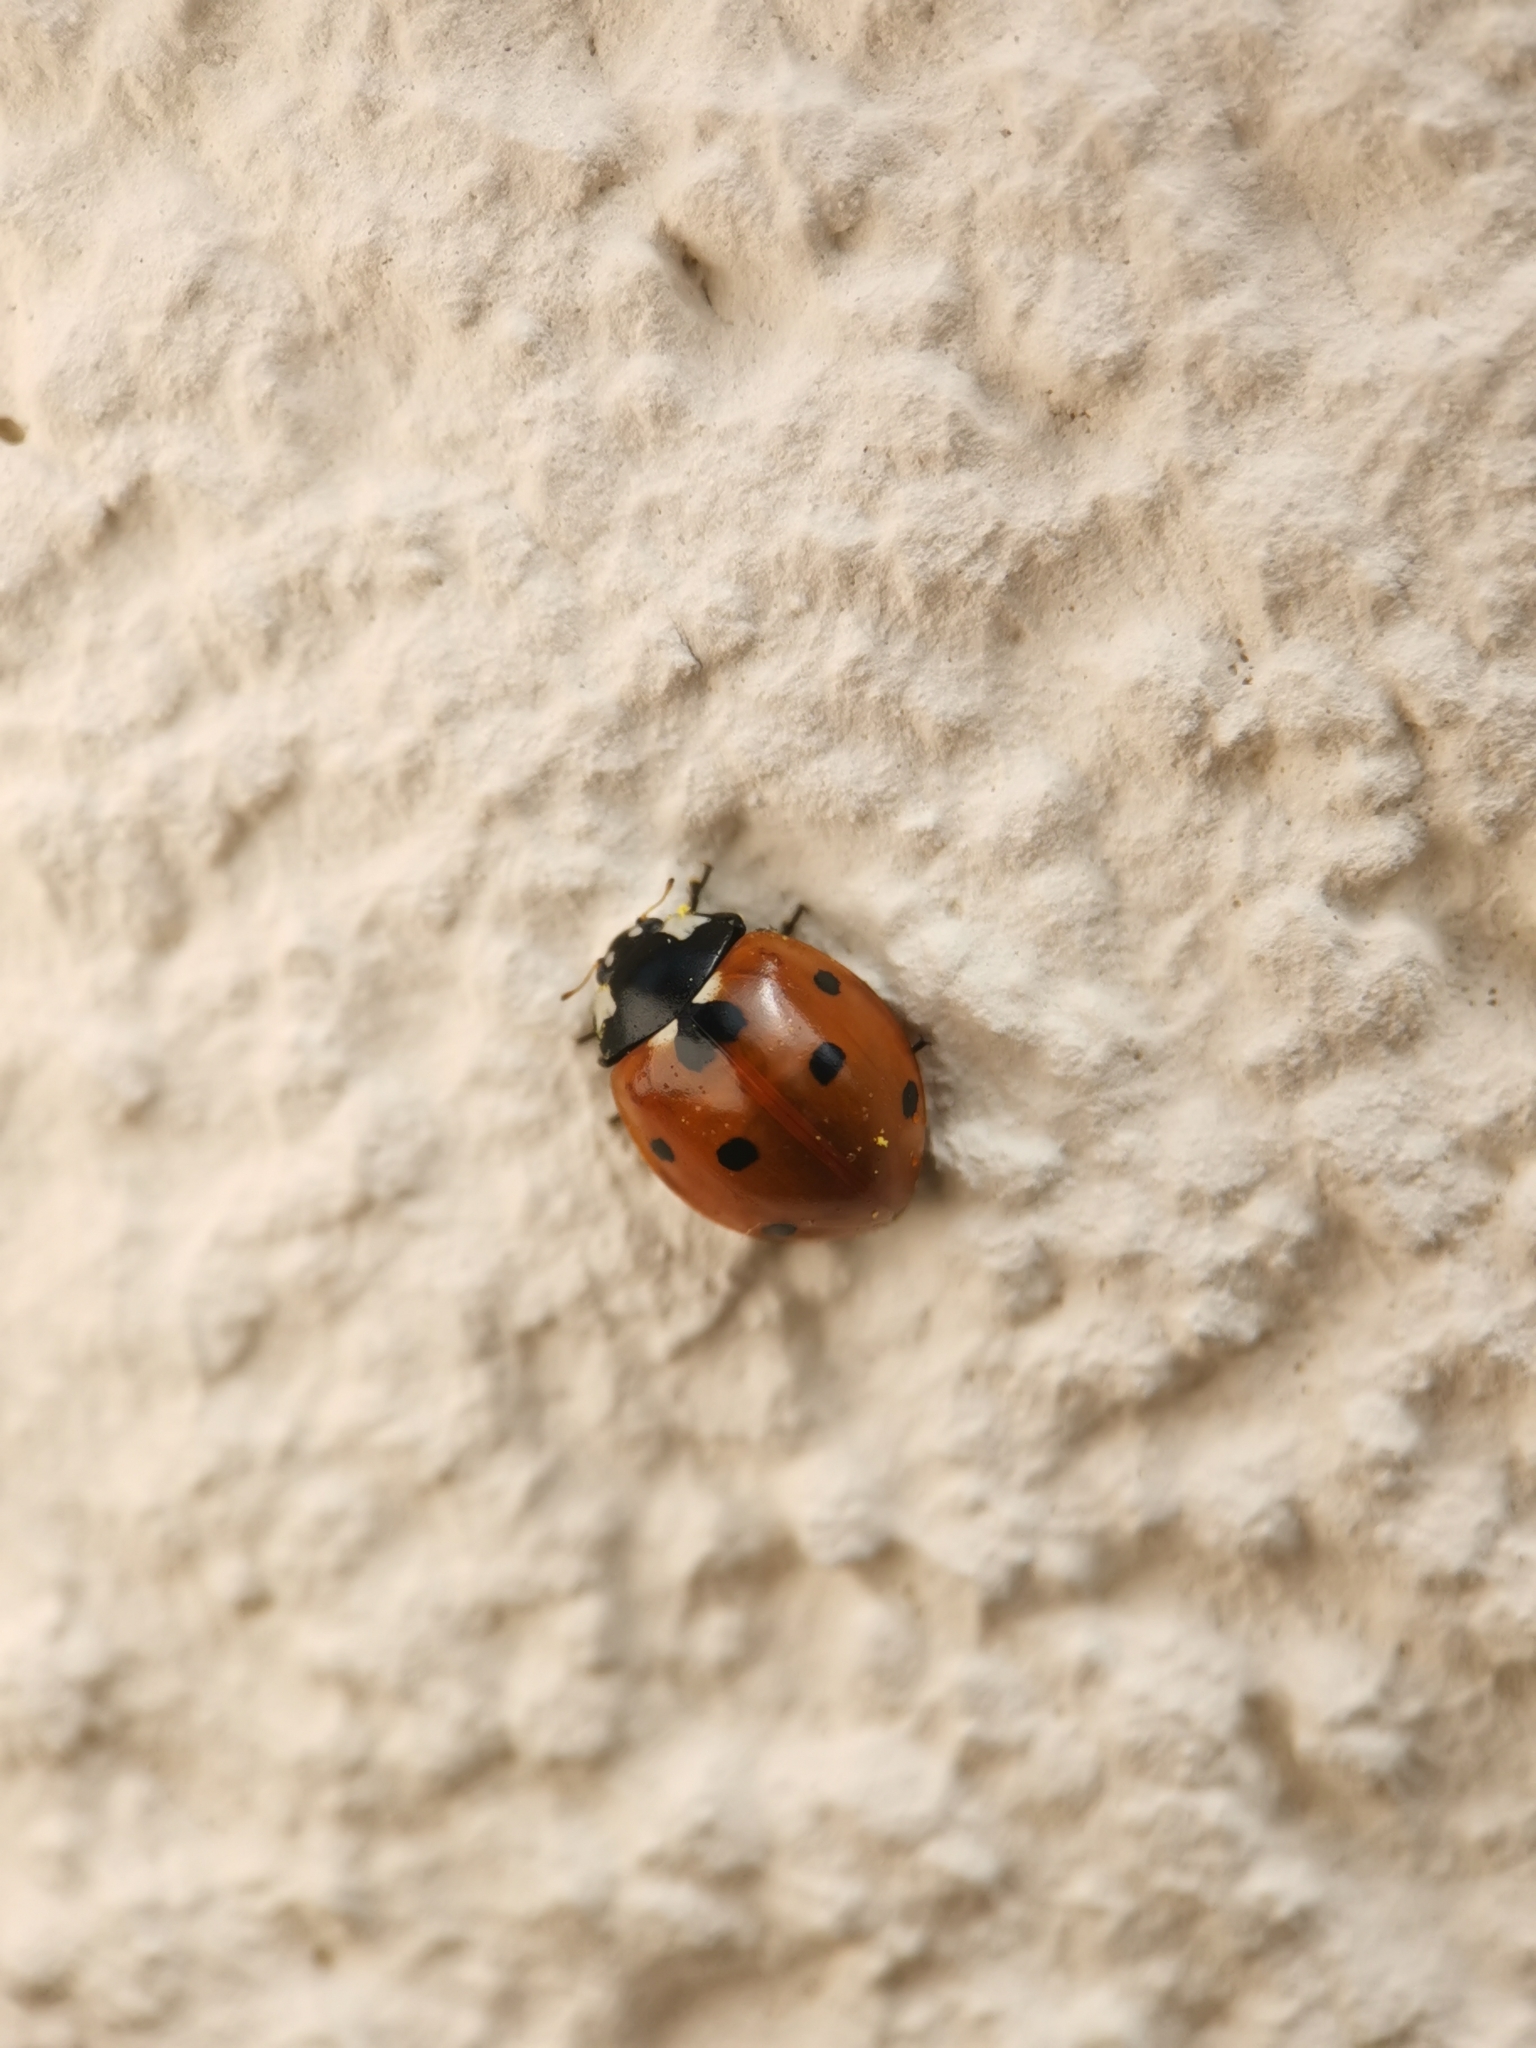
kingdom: Animalia
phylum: Arthropoda
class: Insecta
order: Coleoptera
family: Coccinellidae
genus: Coccinella
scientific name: Coccinella septempunctata
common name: Sevenspotted lady beetle
